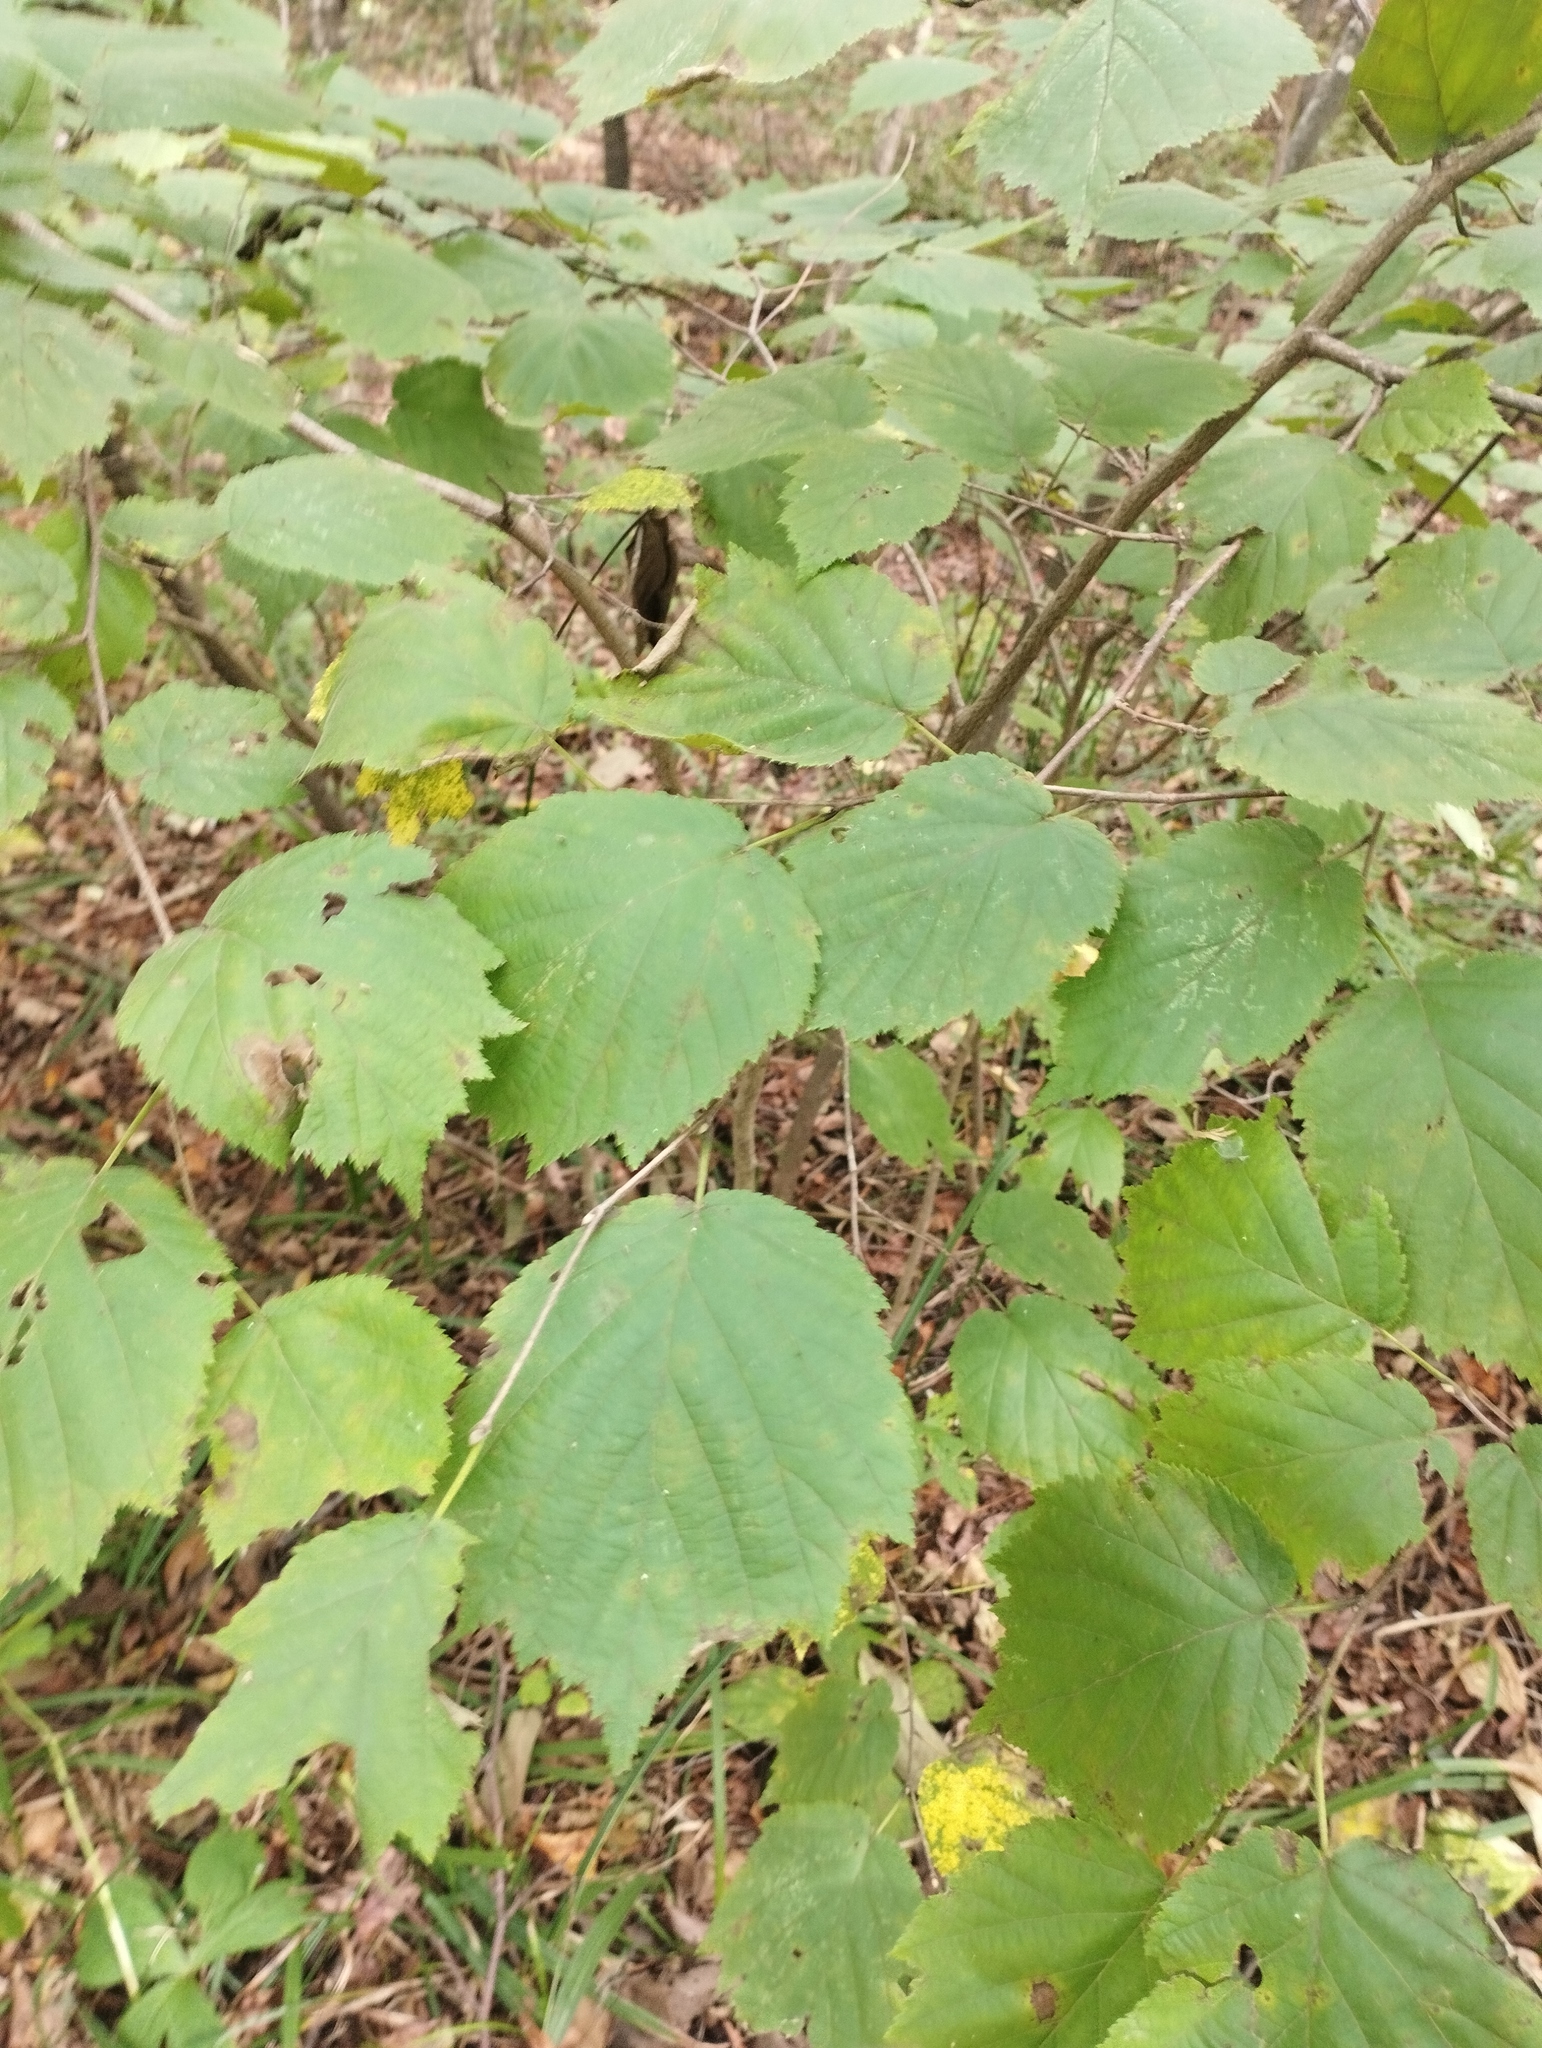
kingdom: Plantae
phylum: Tracheophyta
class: Magnoliopsida
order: Fagales
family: Betulaceae
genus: Corylus
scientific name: Corylus sieboldiana
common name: Japanese hazel
